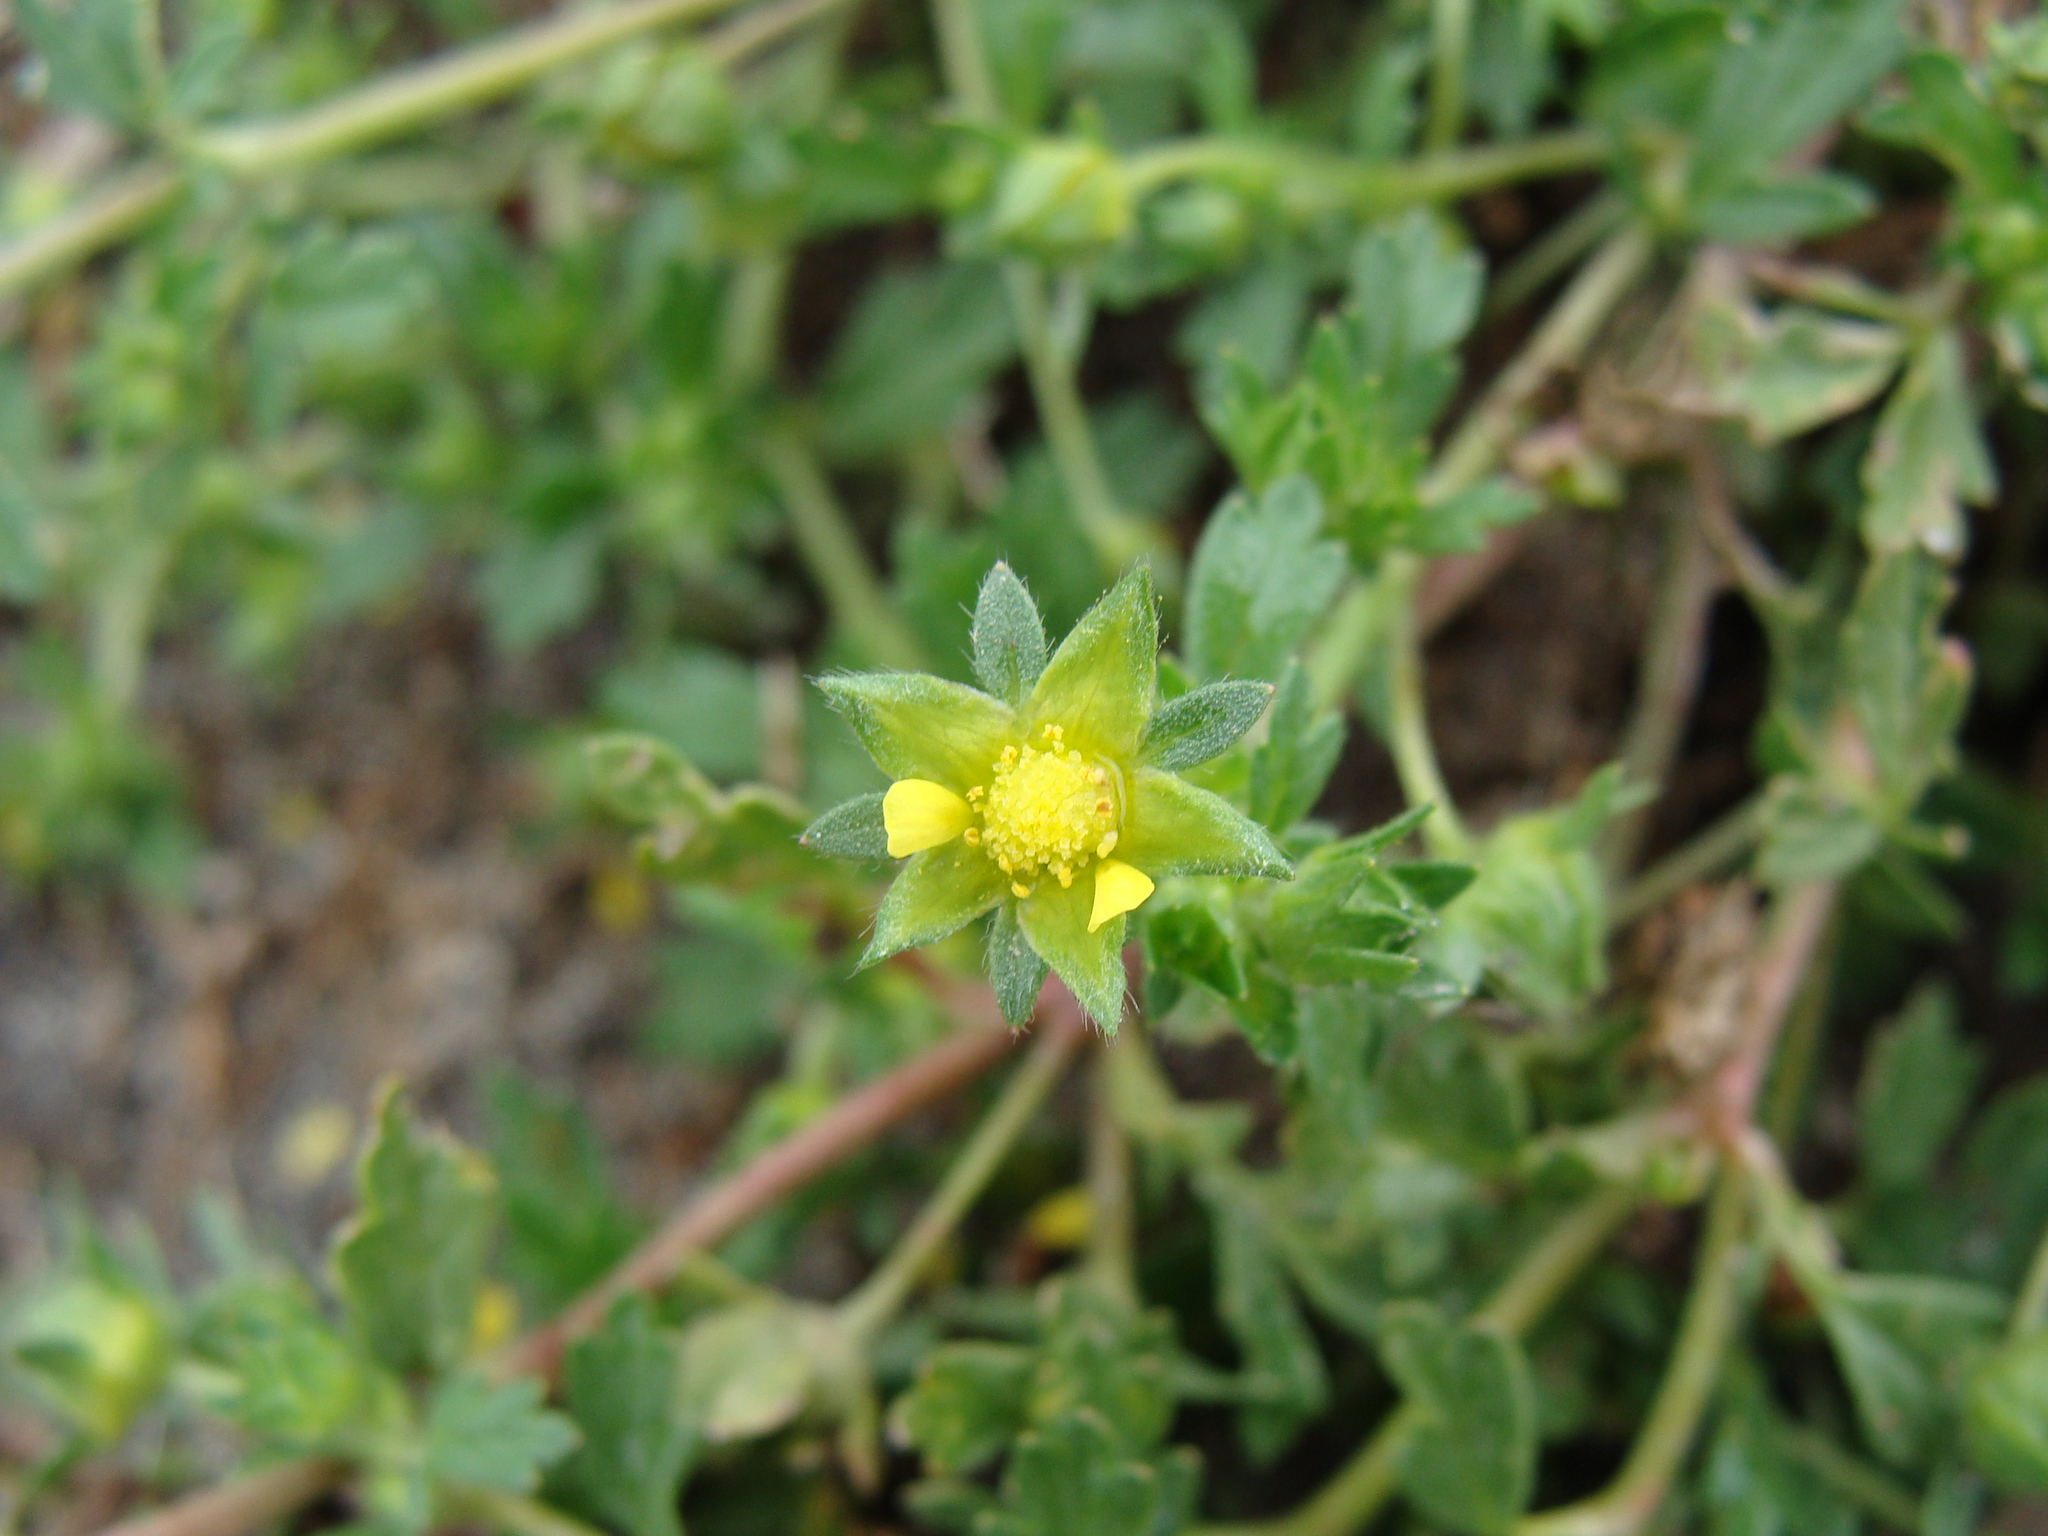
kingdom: Plantae
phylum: Tracheophyta
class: Magnoliopsida
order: Rosales
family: Rosaceae
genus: Potentilla
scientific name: Potentilla rivalis
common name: Brook cinquefoil
